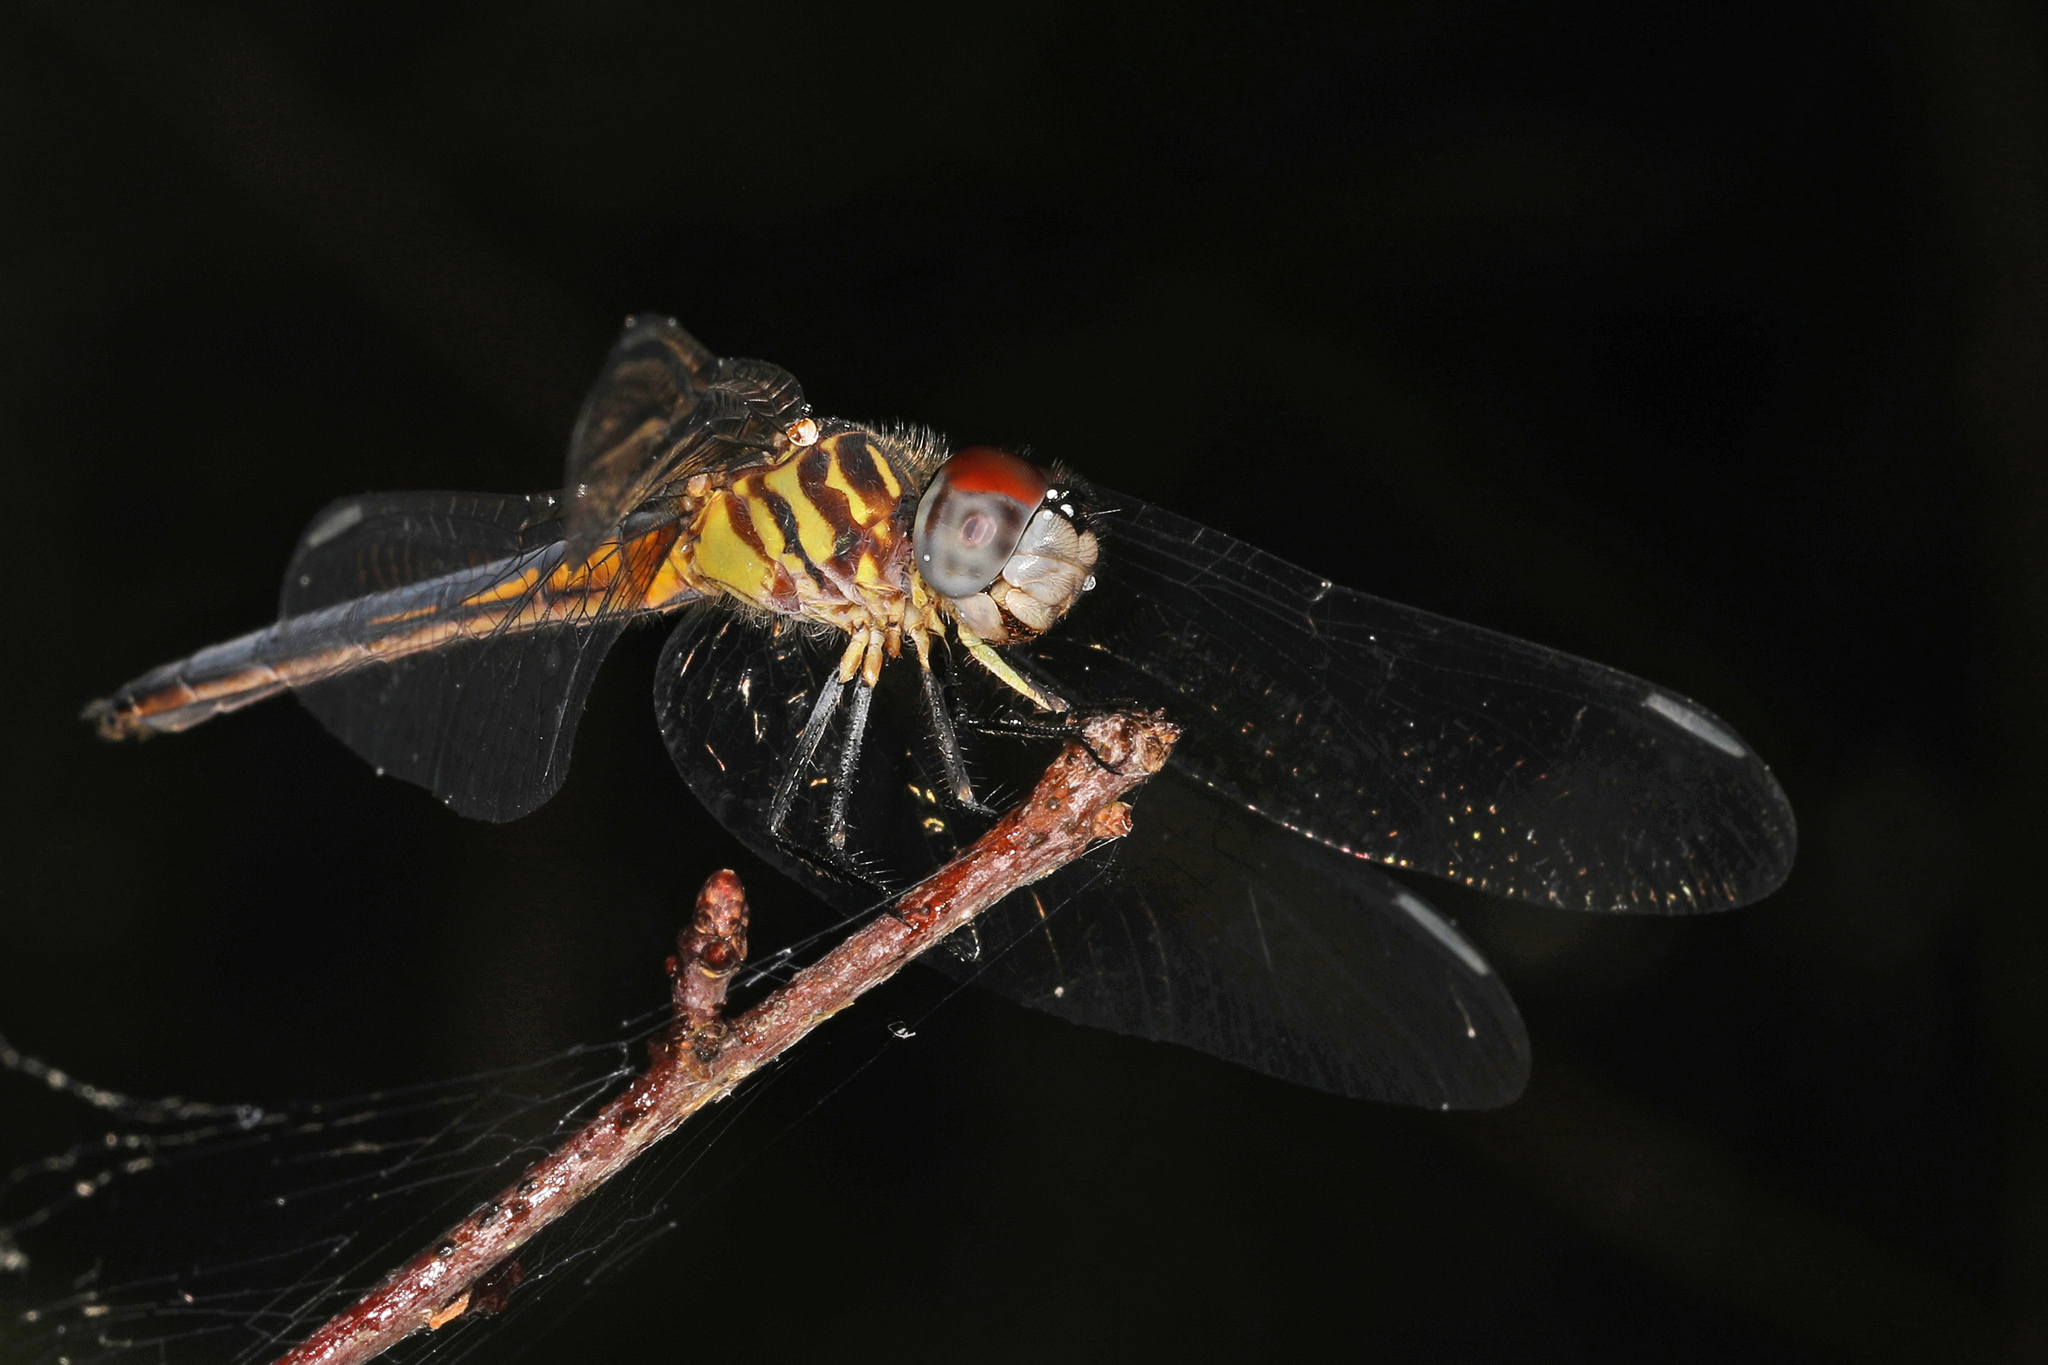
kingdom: Animalia
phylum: Arthropoda
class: Insecta
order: Odonata
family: Libellulidae
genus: Pachydiplax
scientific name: Pachydiplax longipennis
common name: Blue dasher
